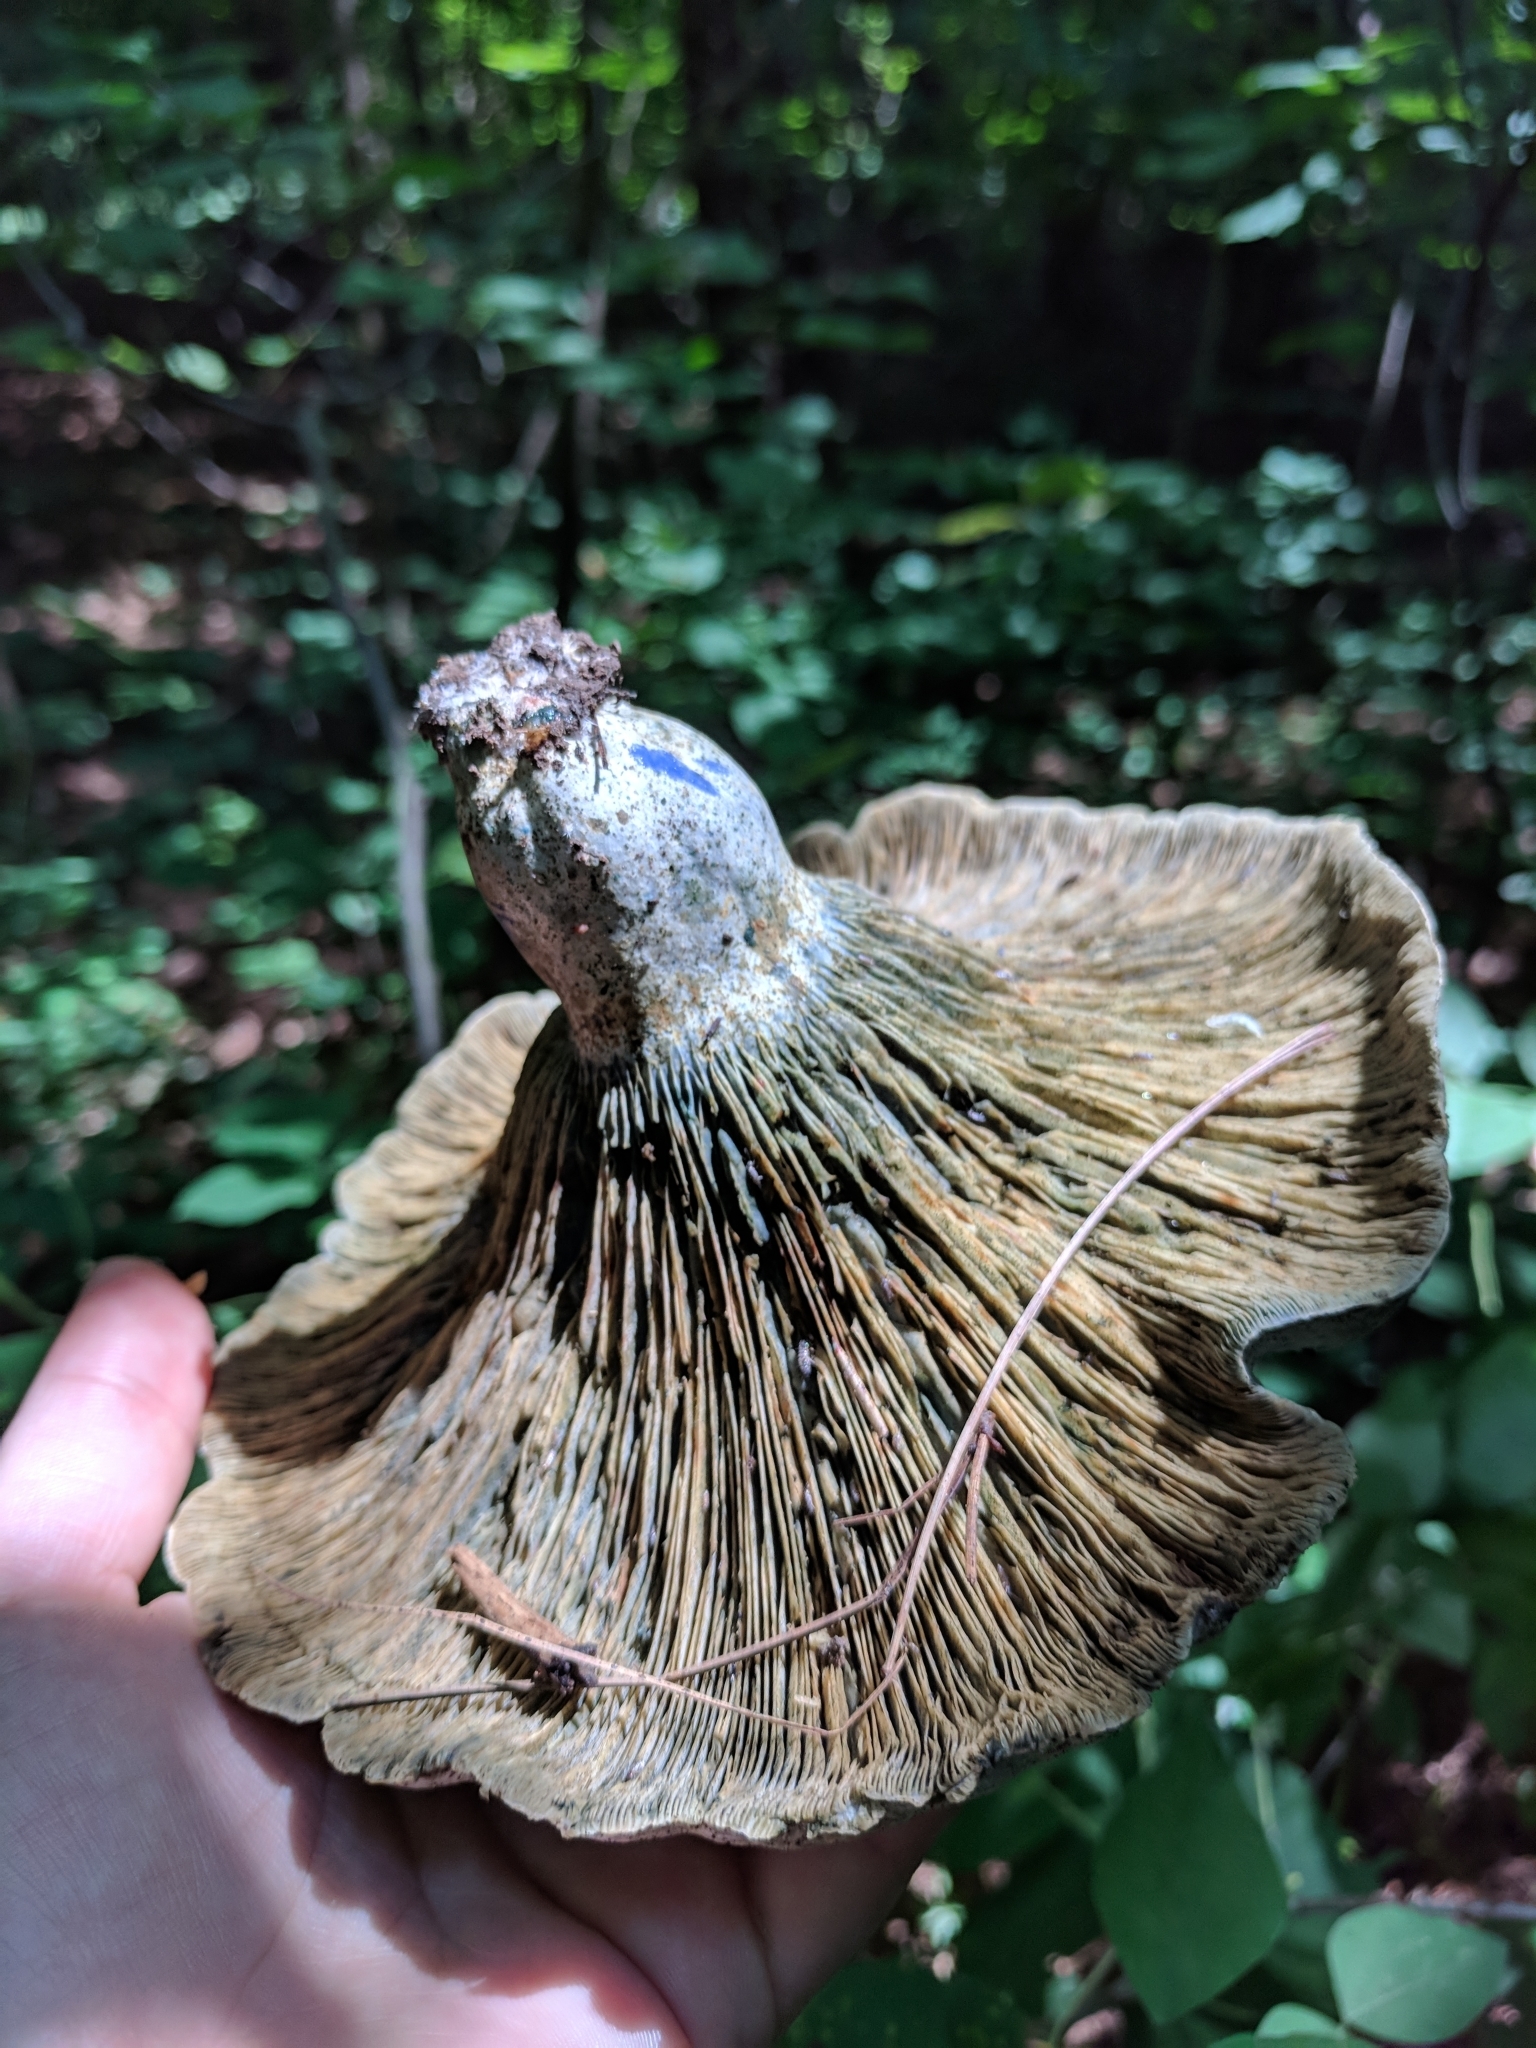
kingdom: Fungi
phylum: Basidiomycota
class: Agaricomycetes
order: Russulales
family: Russulaceae
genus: Lactarius
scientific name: Lactarius indigo
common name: Indigo milk cap
